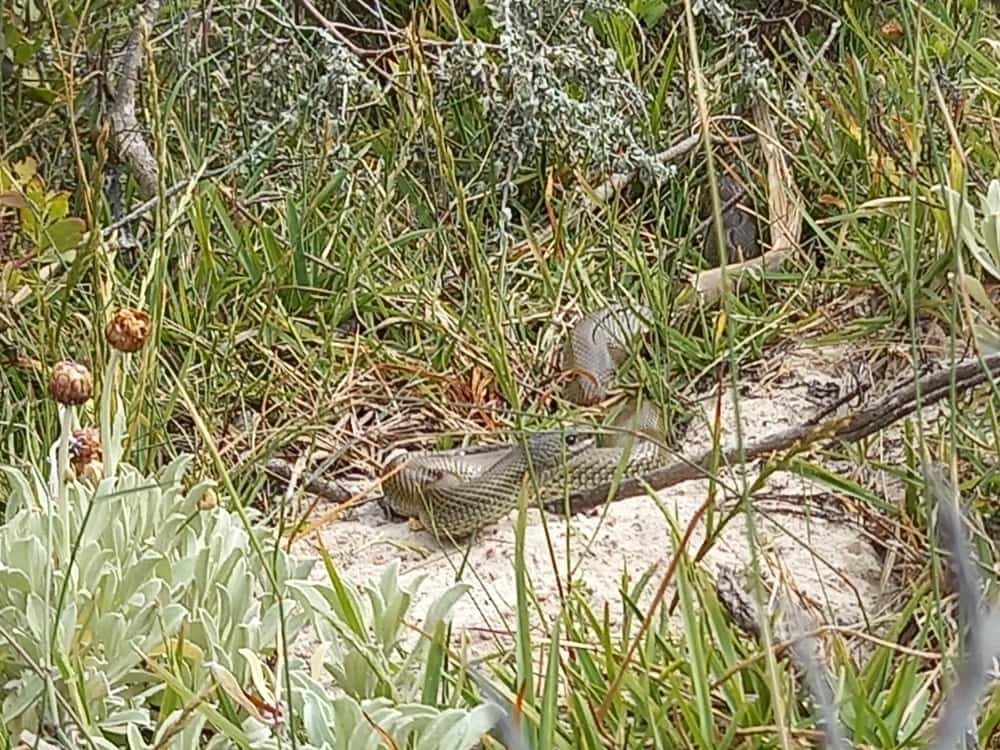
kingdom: Animalia
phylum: Chordata
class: Squamata
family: Pseudaspididae
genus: Pseudaspis
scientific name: Pseudaspis cana
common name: Mole snake
